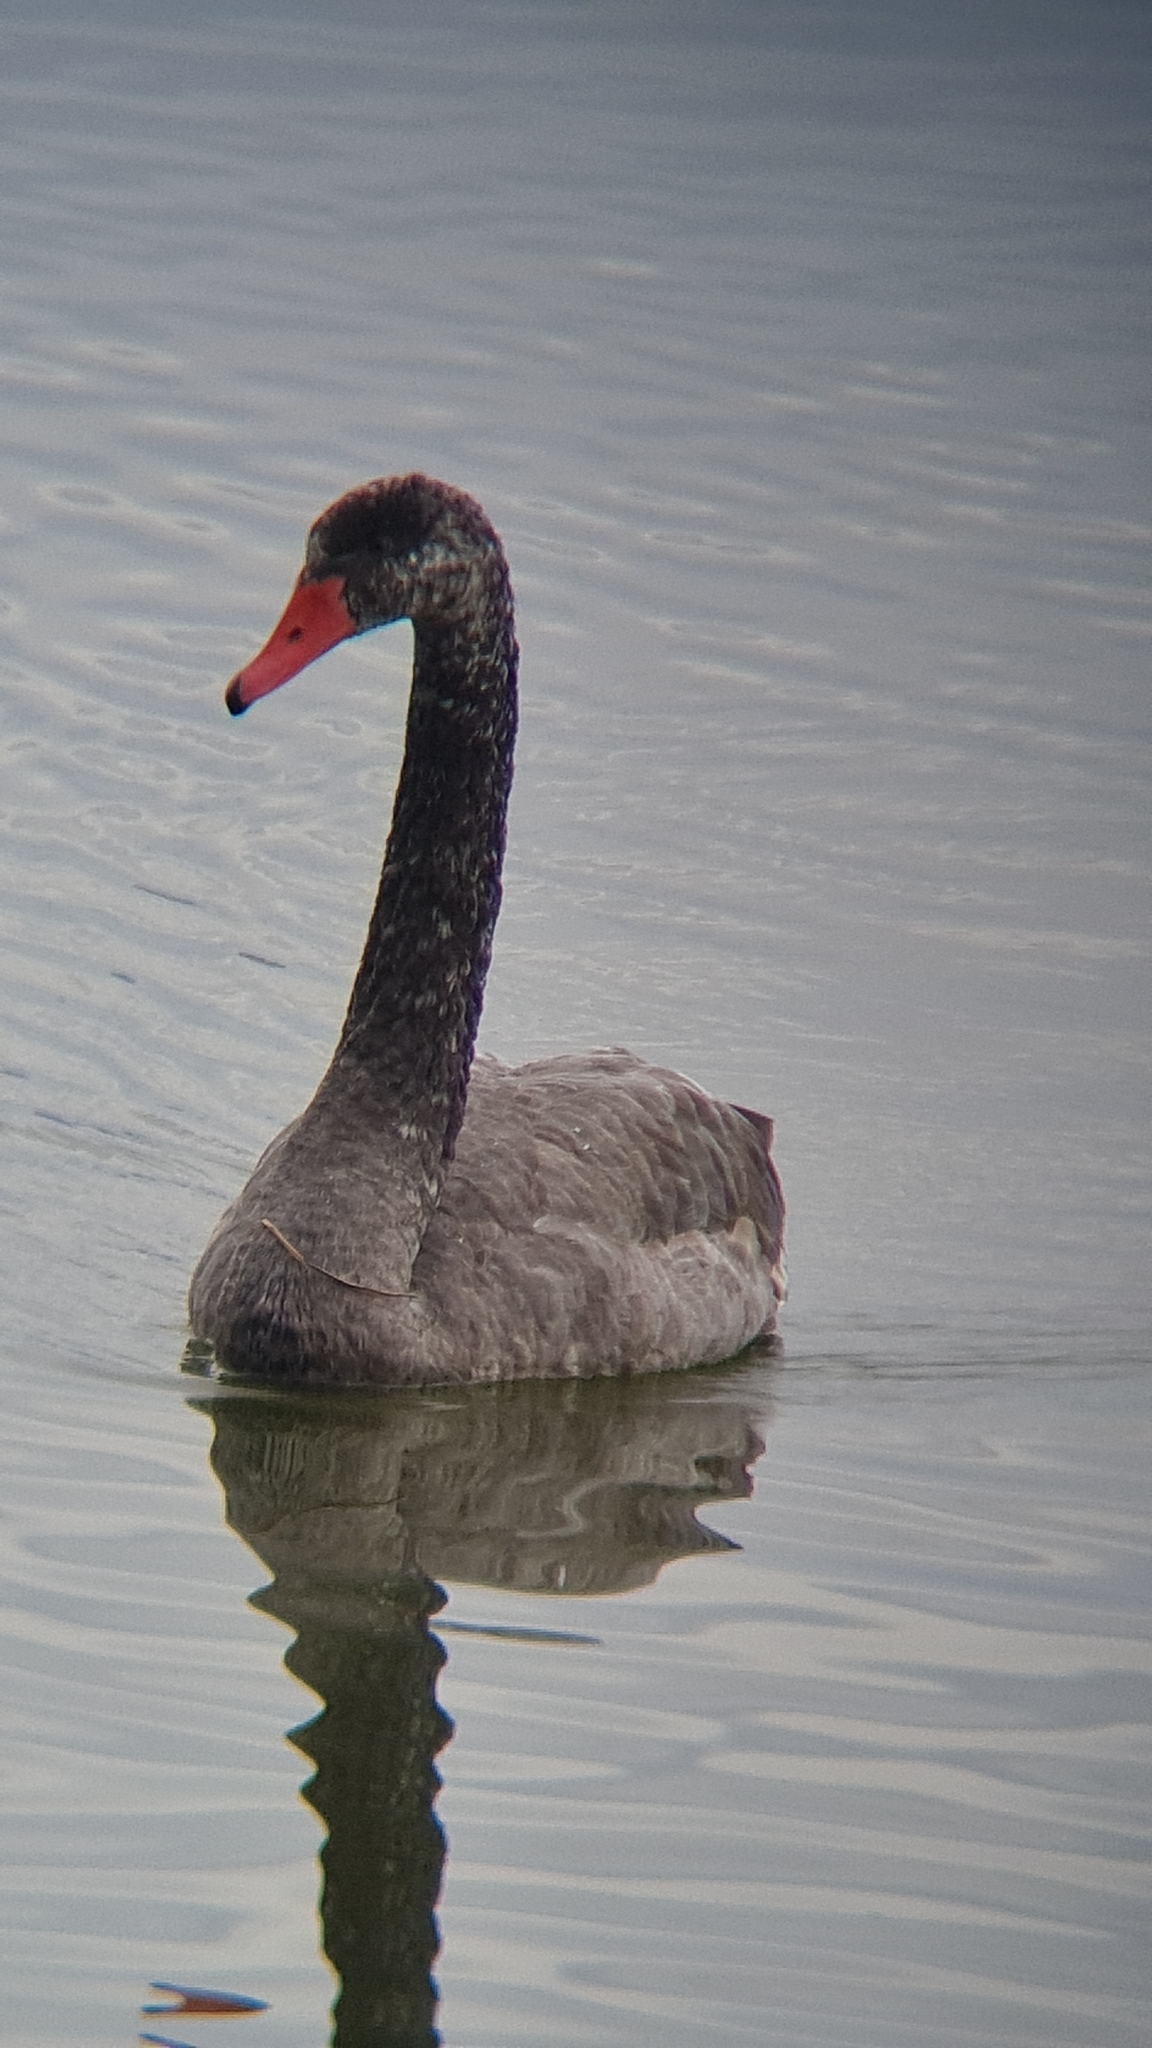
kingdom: Animalia
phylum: Chordata
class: Aves
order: Anseriformes
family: Anatidae
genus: Cygnus
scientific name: Cygnus atratus
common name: Black swan
